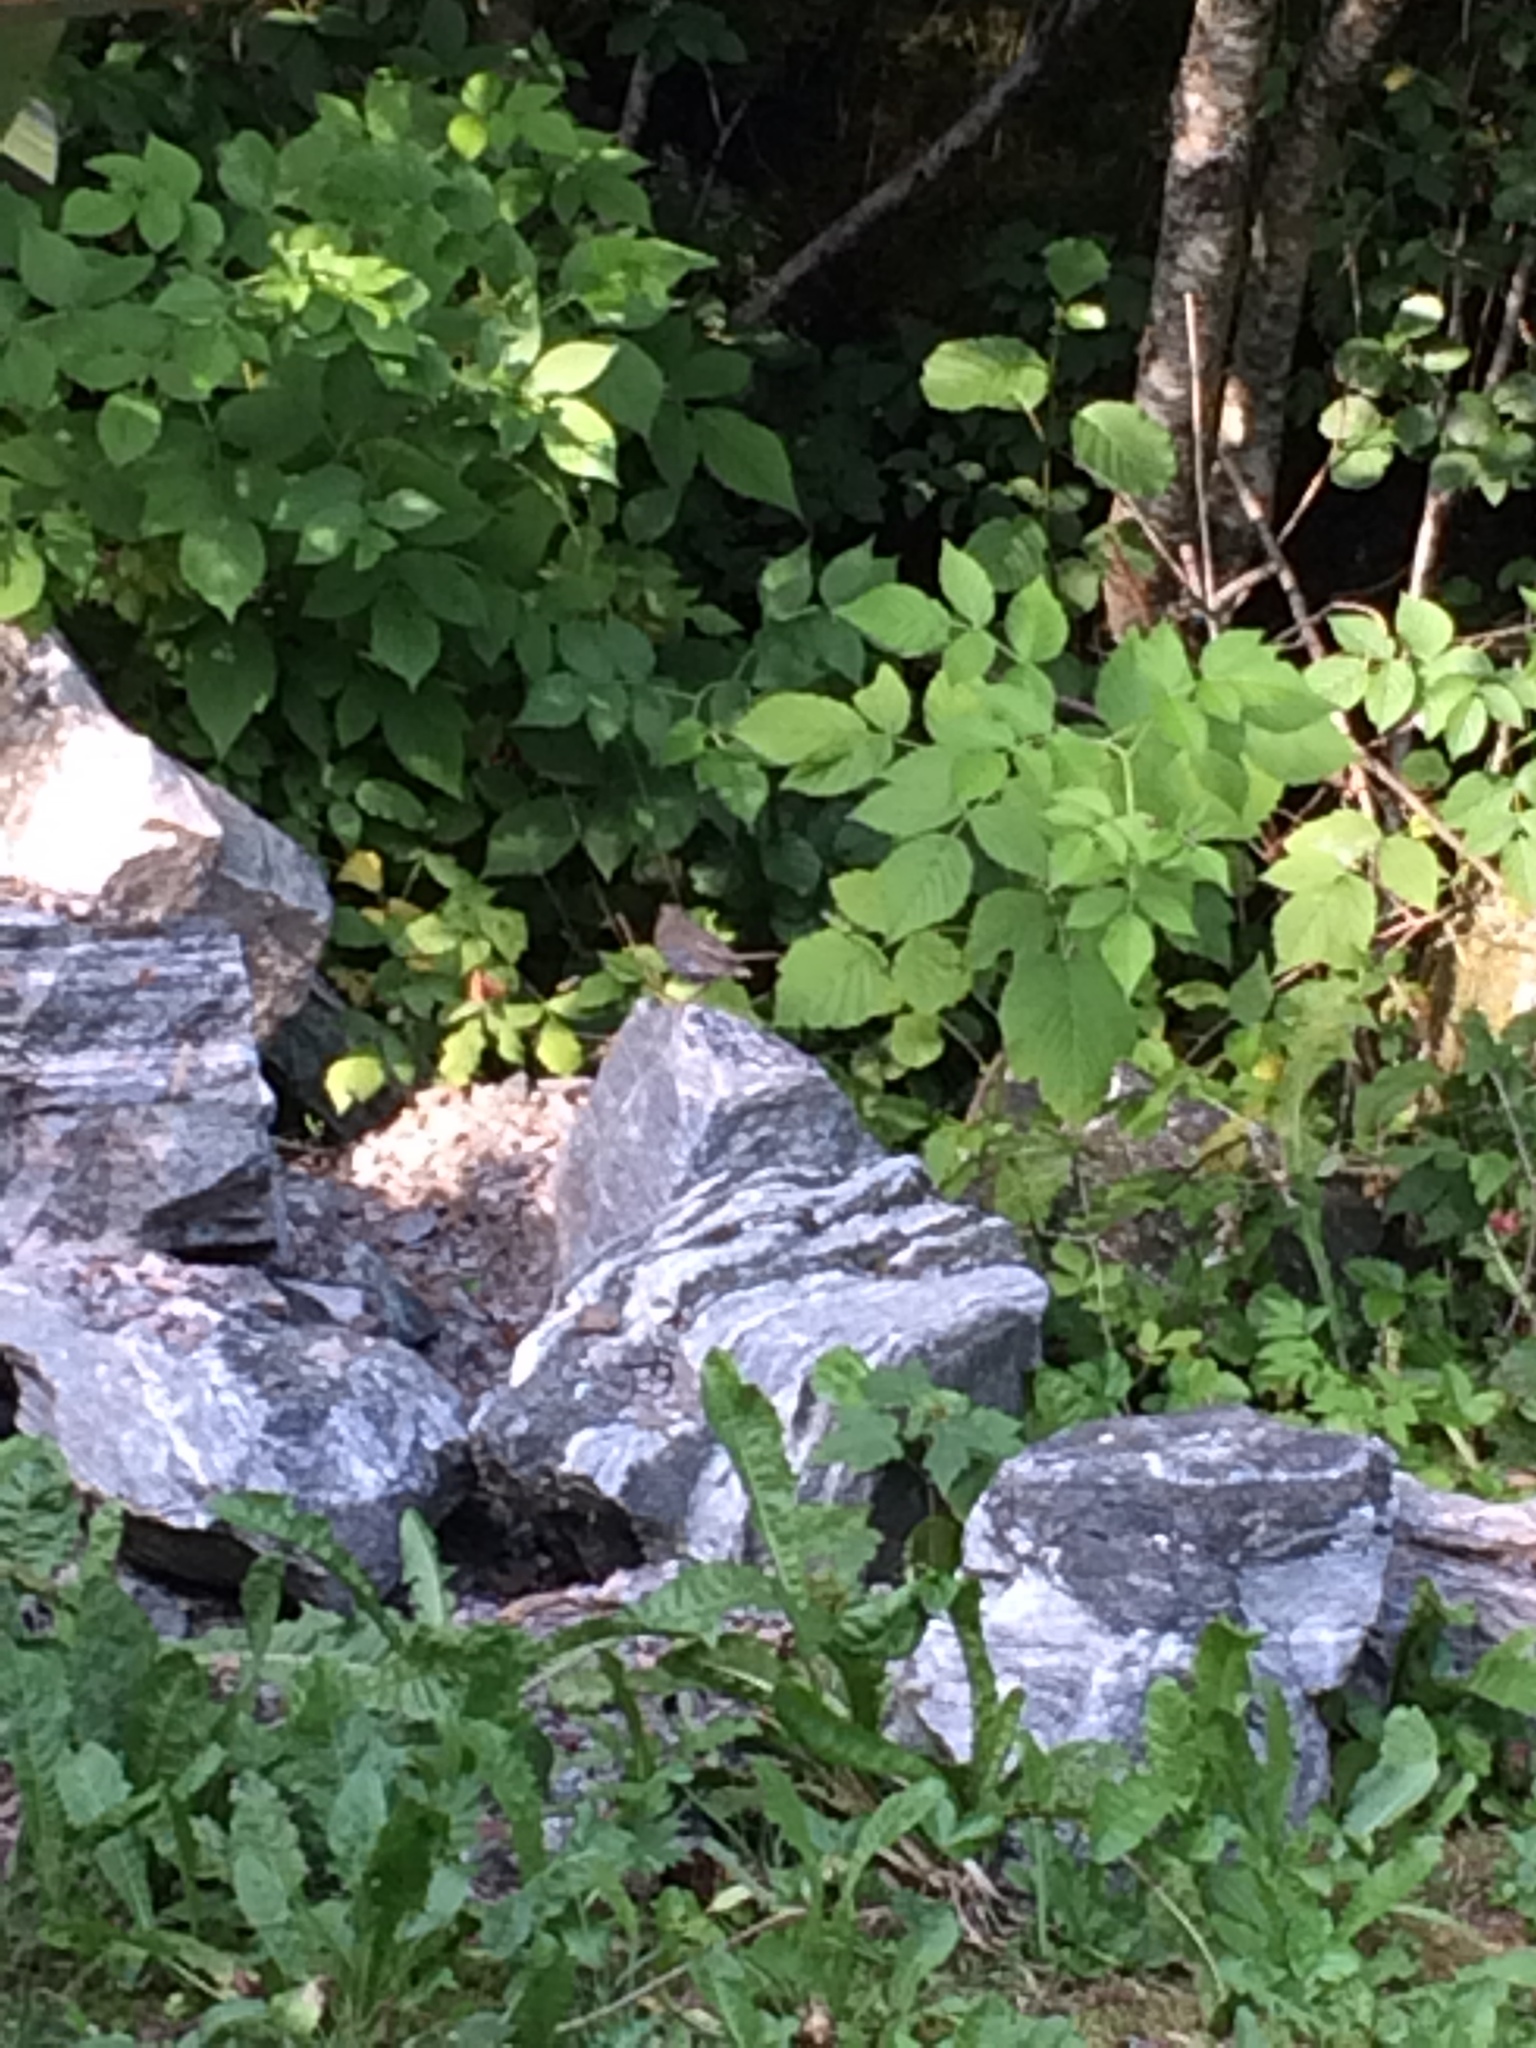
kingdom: Animalia
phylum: Chordata
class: Aves
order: Passeriformes
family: Muscicapidae
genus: Erithacus
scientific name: Erithacus rubecula
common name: European robin
